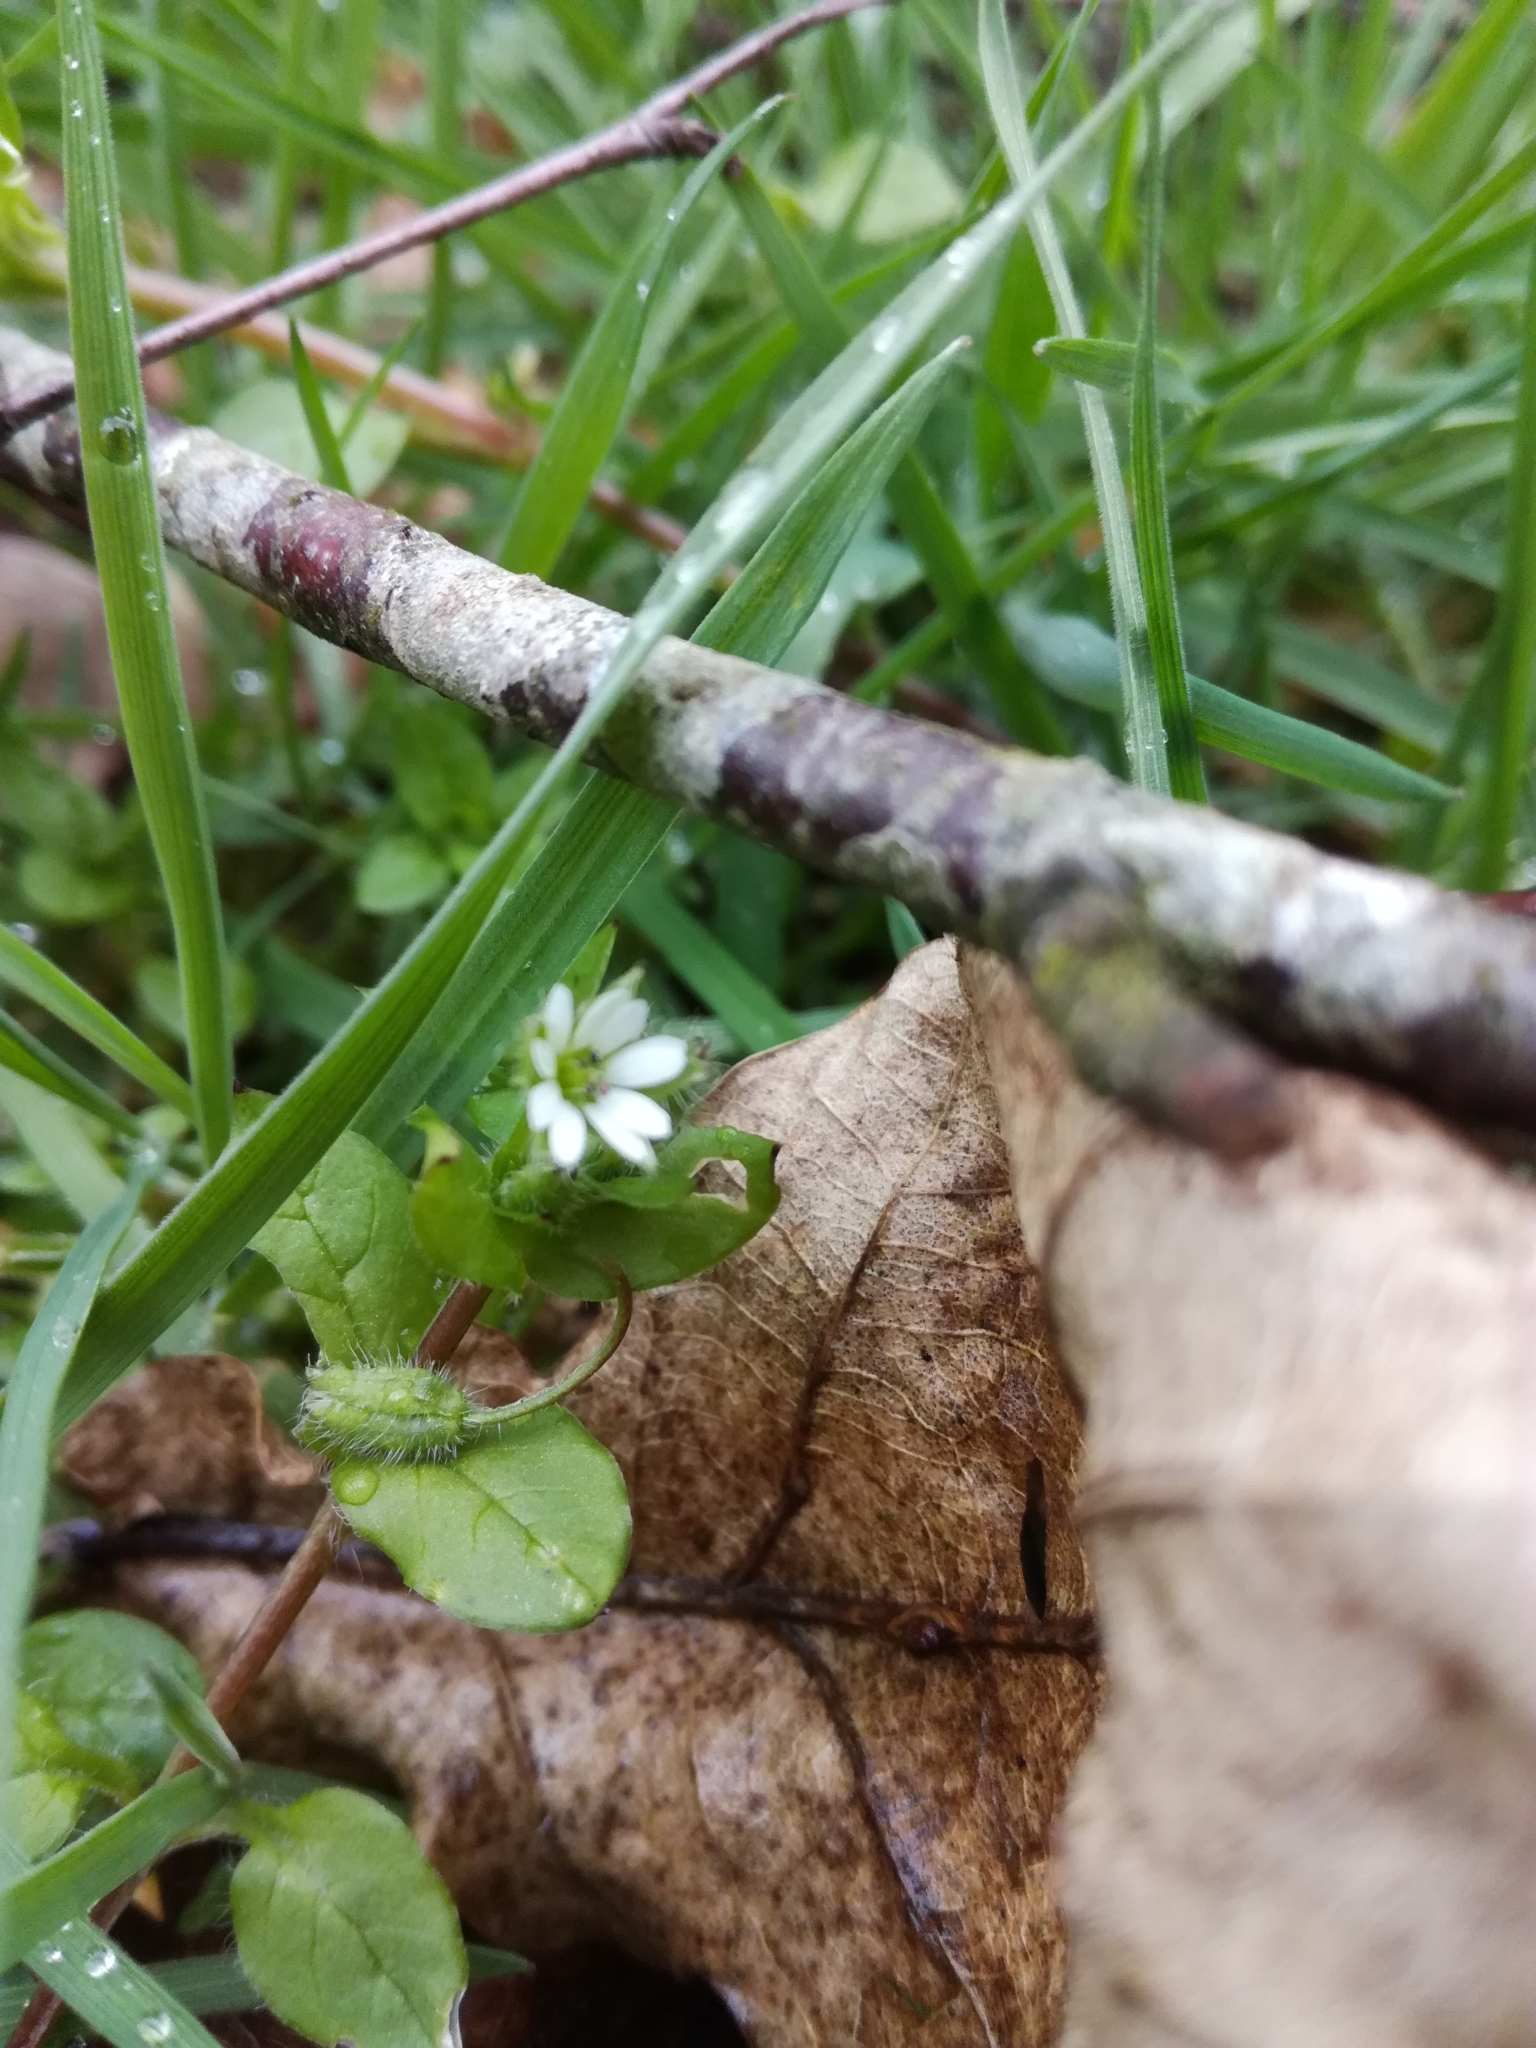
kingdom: Plantae
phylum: Tracheophyta
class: Magnoliopsida
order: Caryophyllales
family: Caryophyllaceae
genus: Stellaria
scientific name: Stellaria media
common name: Common chickweed
